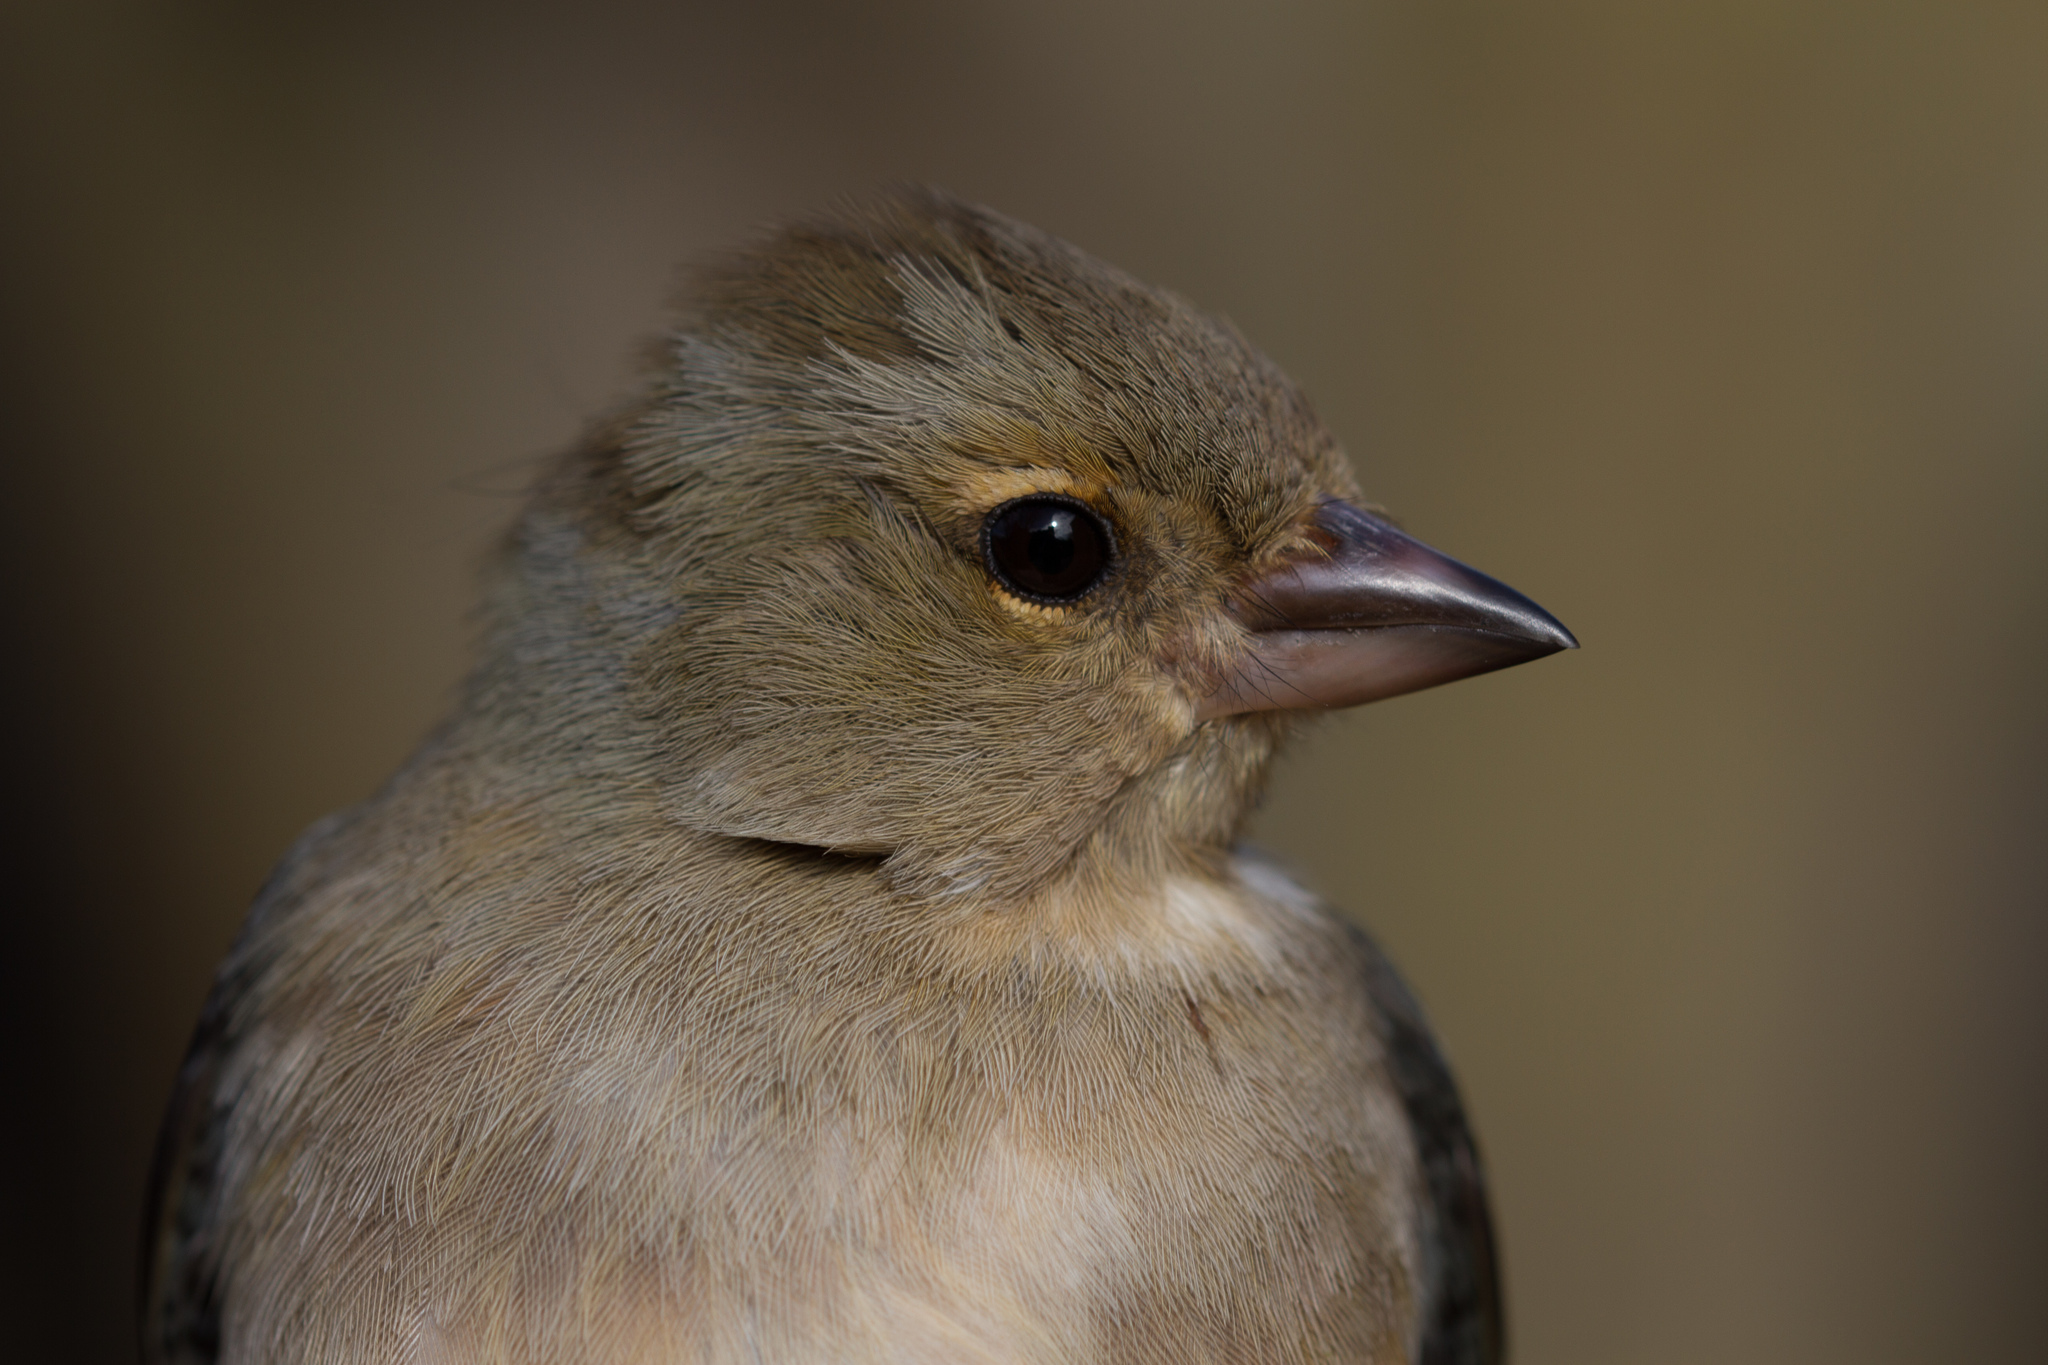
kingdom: Animalia
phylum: Chordata
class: Aves
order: Passeriformes
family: Fringillidae
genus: Fringilla
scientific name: Fringilla coelebs
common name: Common chaffinch
